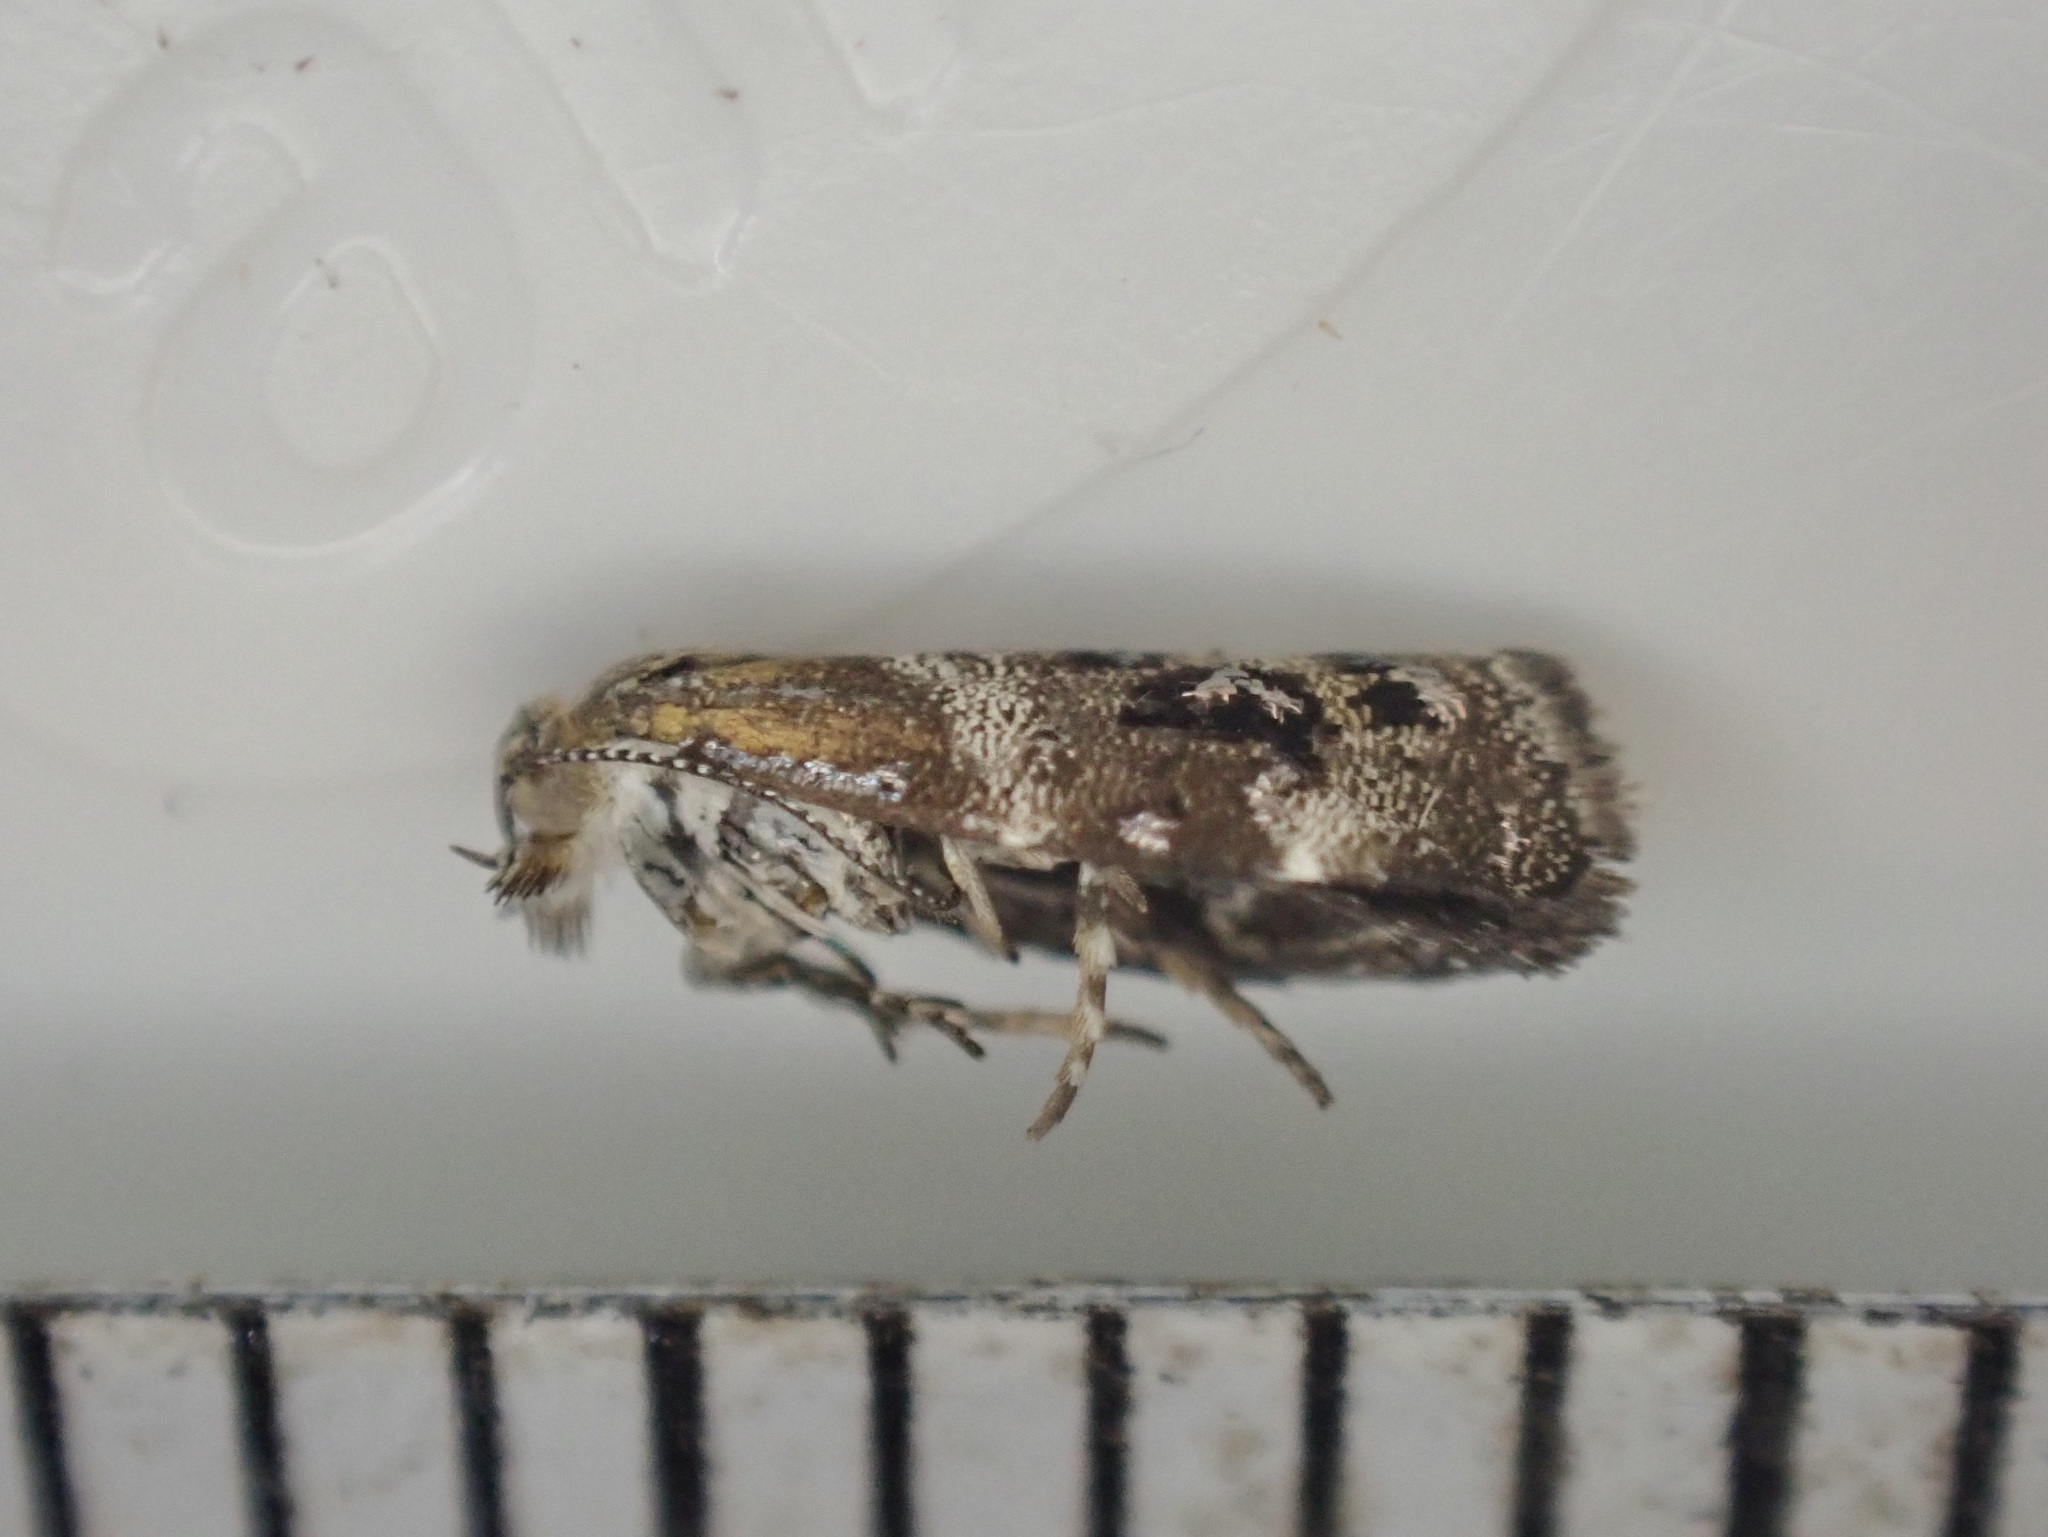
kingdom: Animalia
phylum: Arthropoda
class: Insecta
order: Lepidoptera
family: Choreutidae
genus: Tebenna
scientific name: Tebenna micalis
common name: Vagrant twitcher
